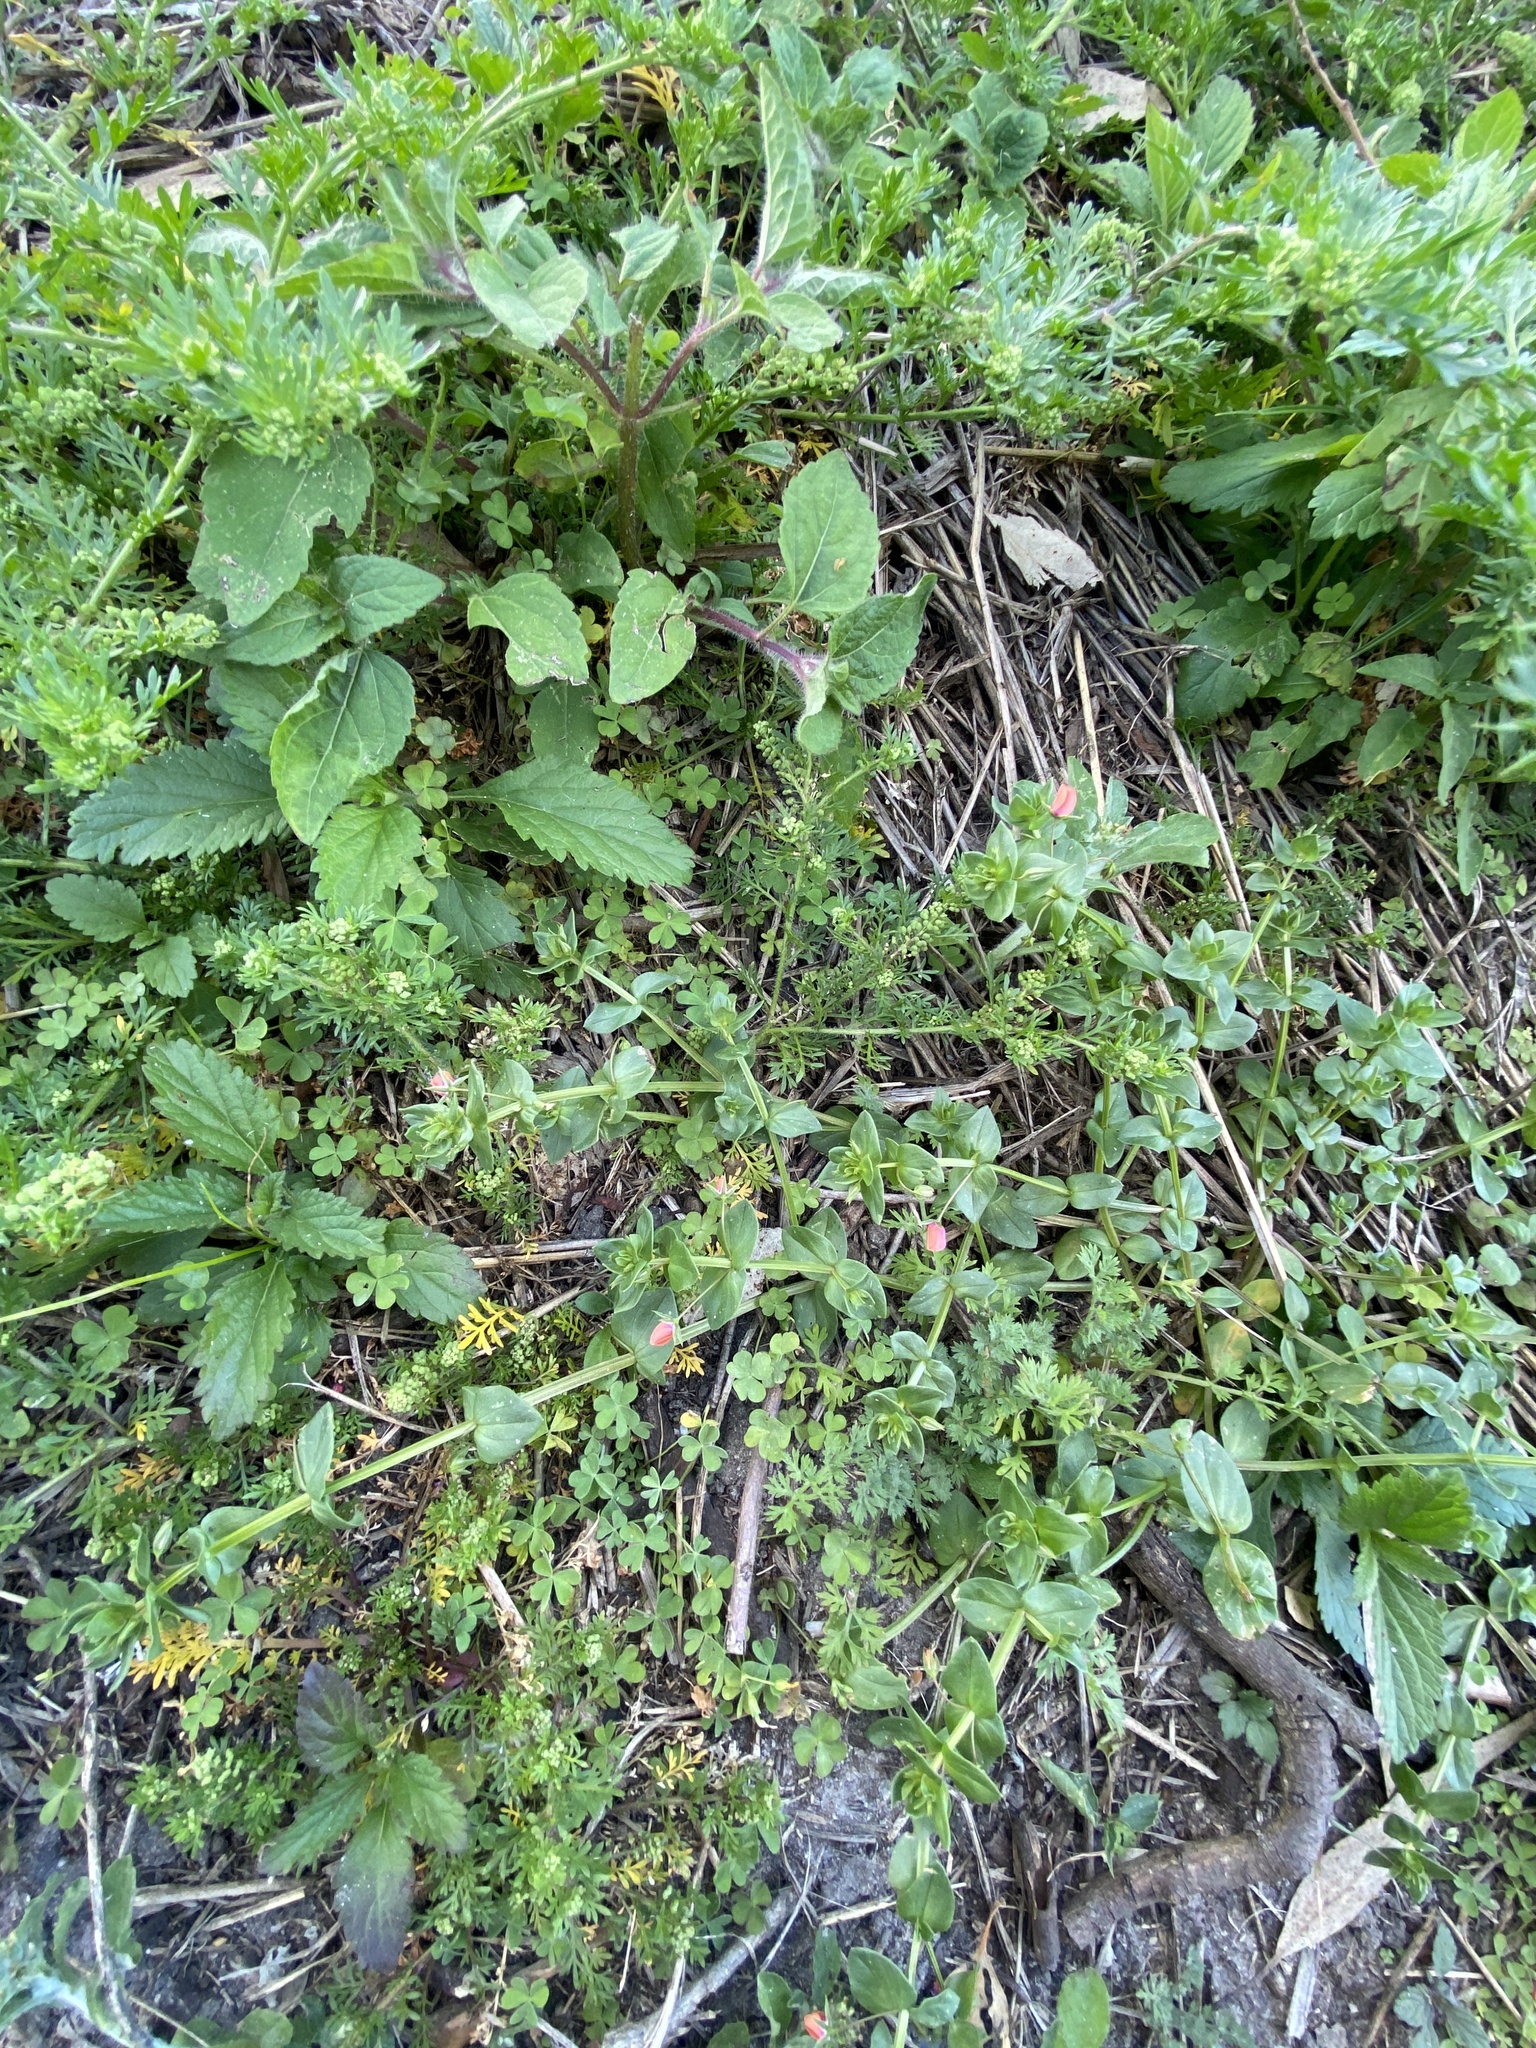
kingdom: Plantae
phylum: Tracheophyta
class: Magnoliopsida
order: Ericales
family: Primulaceae
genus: Lysimachia
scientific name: Lysimachia arvensis
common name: Scarlet pimpernel
